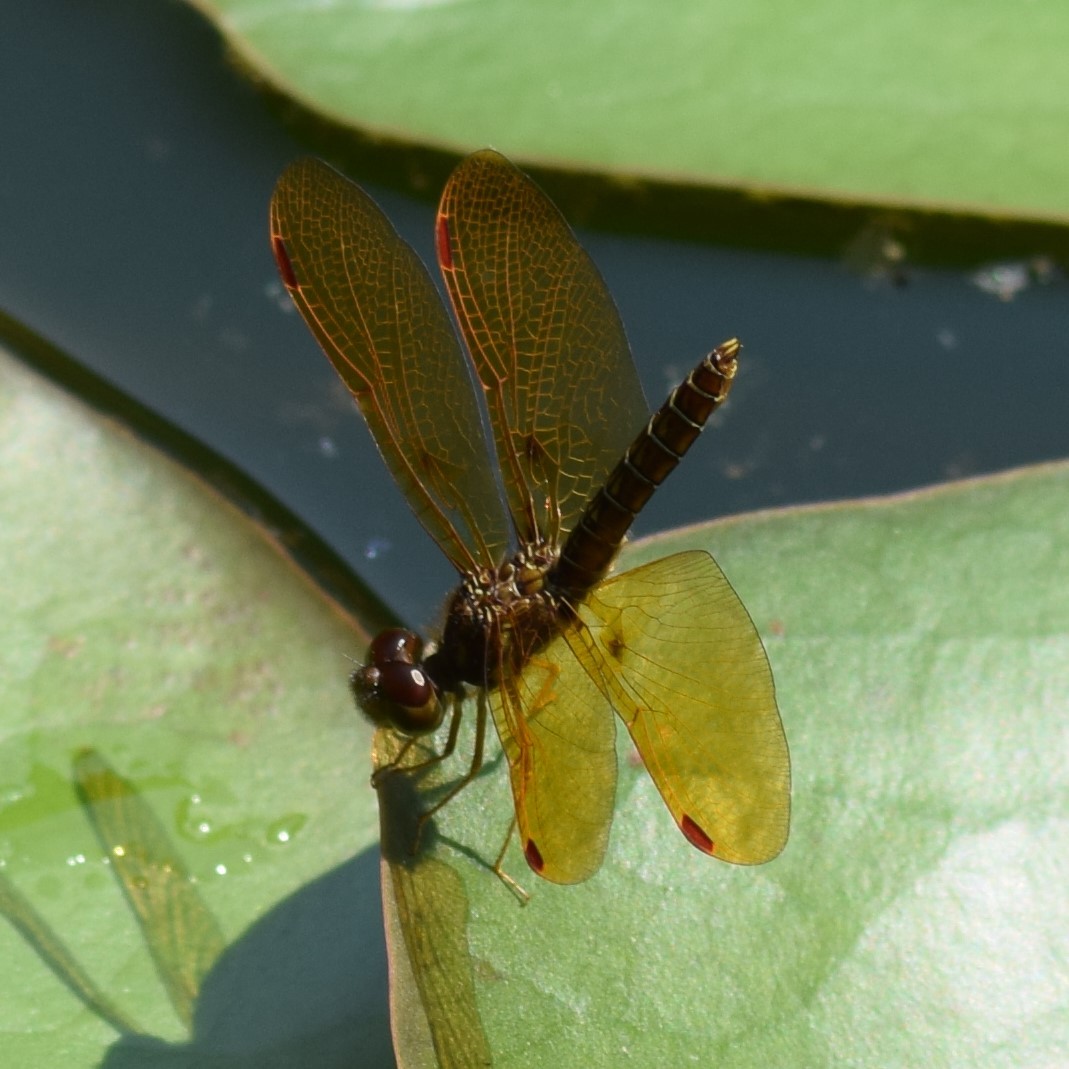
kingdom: Animalia
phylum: Arthropoda
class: Insecta
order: Odonata
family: Libellulidae
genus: Perithemis
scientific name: Perithemis tenera
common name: Eastern amberwing
